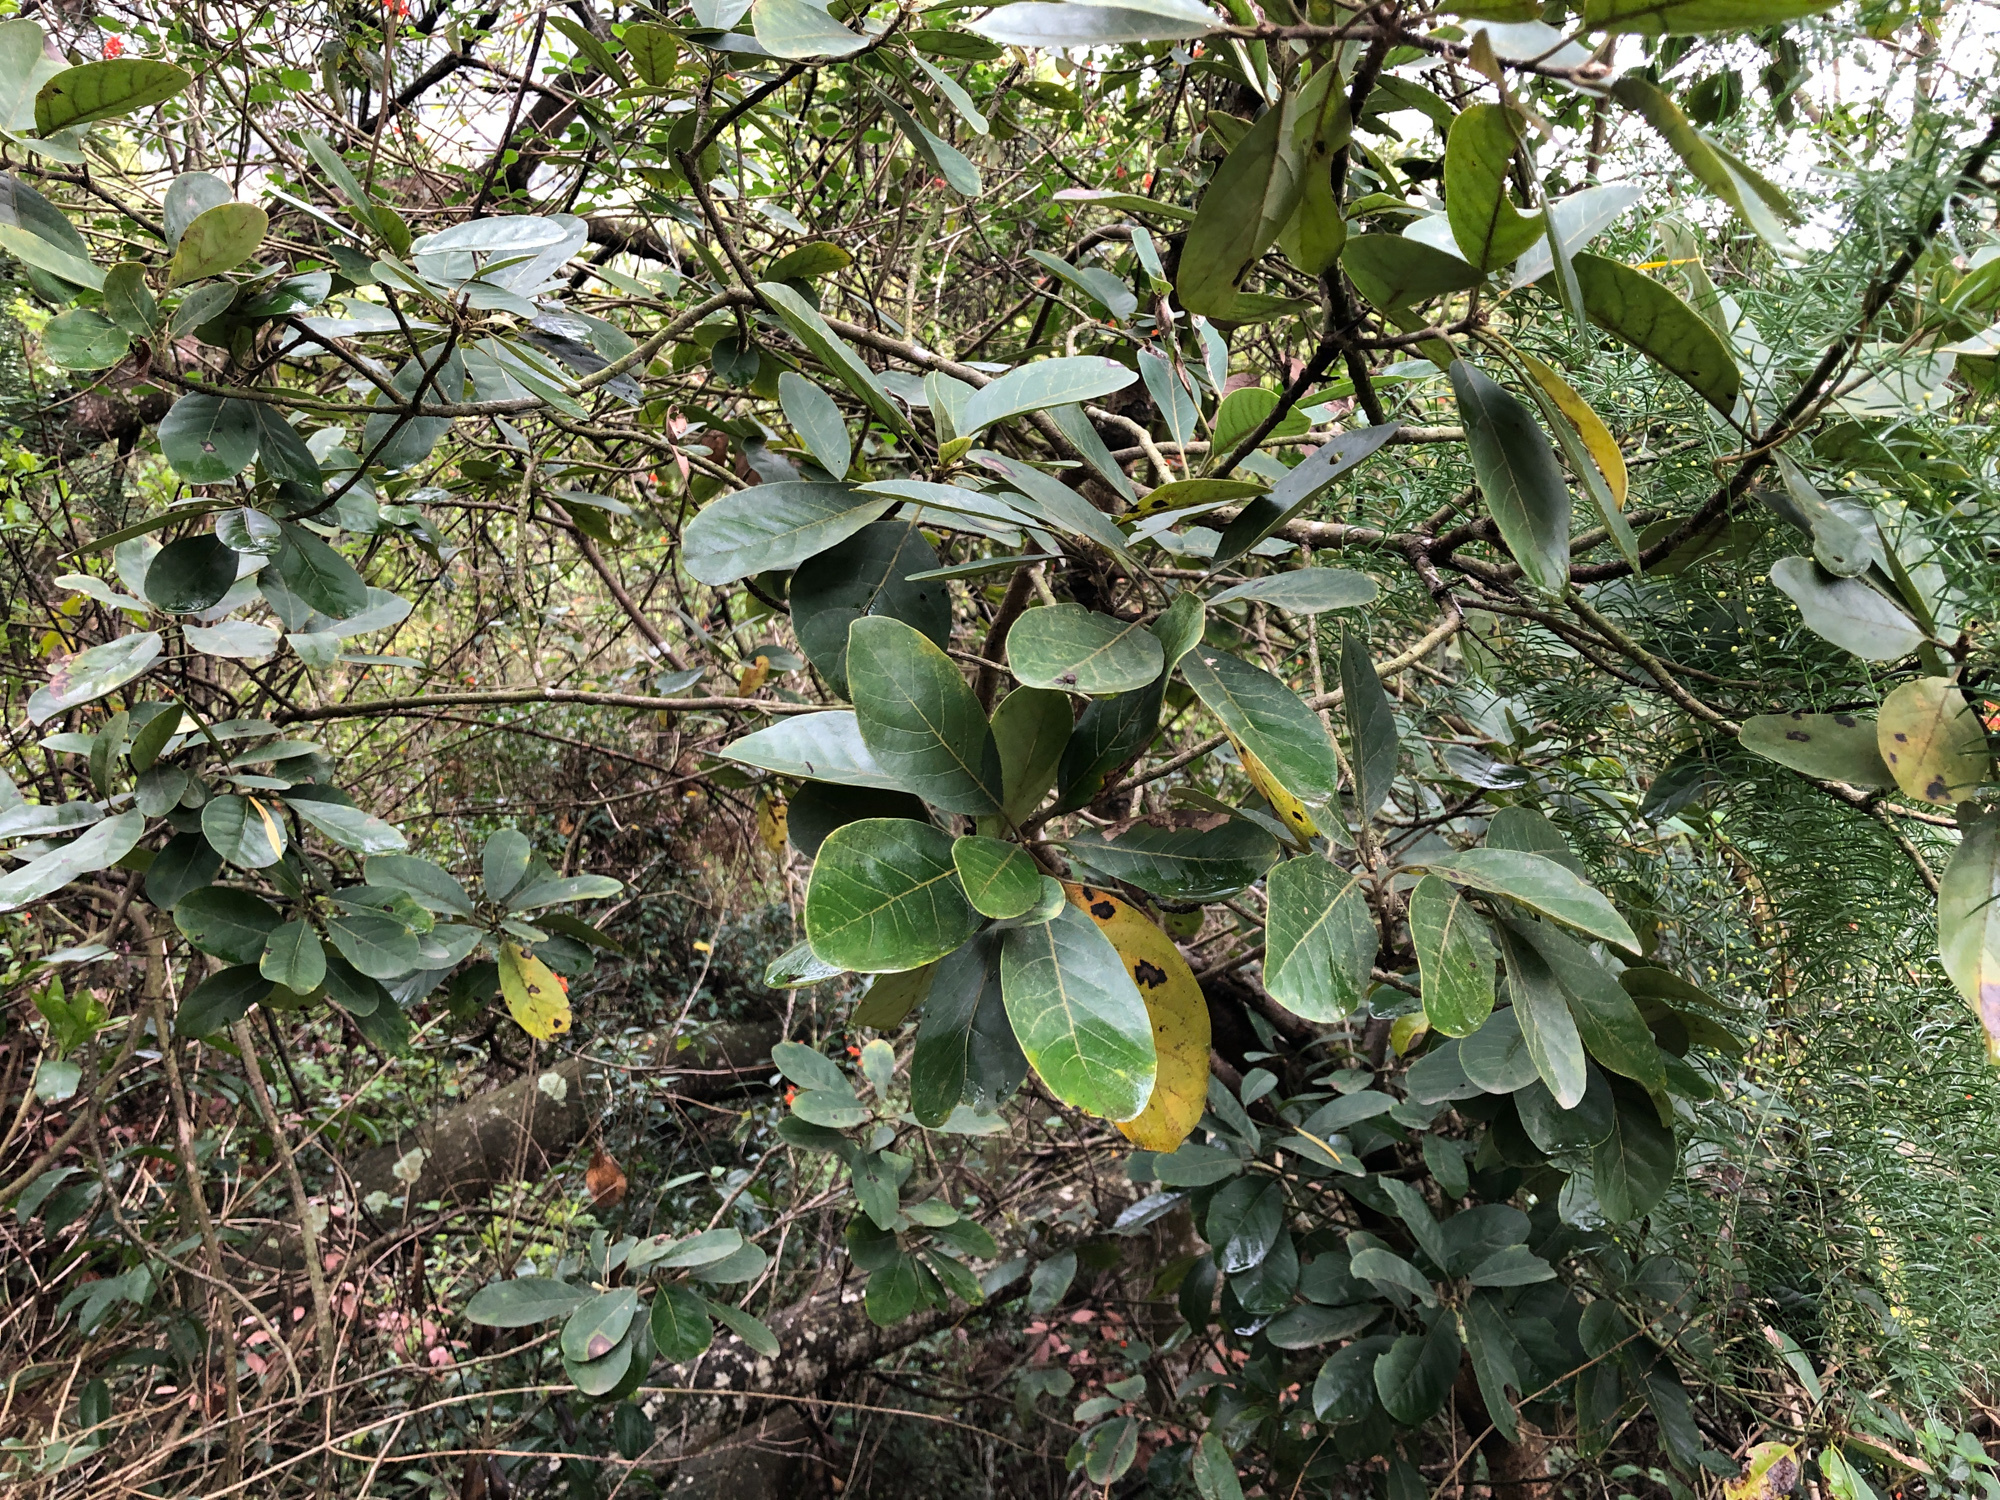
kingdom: Plantae
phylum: Tracheophyta
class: Magnoliopsida
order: Laurales
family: Lauraceae
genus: Litsea
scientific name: Litsea glutinosa
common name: Indian-laurel
